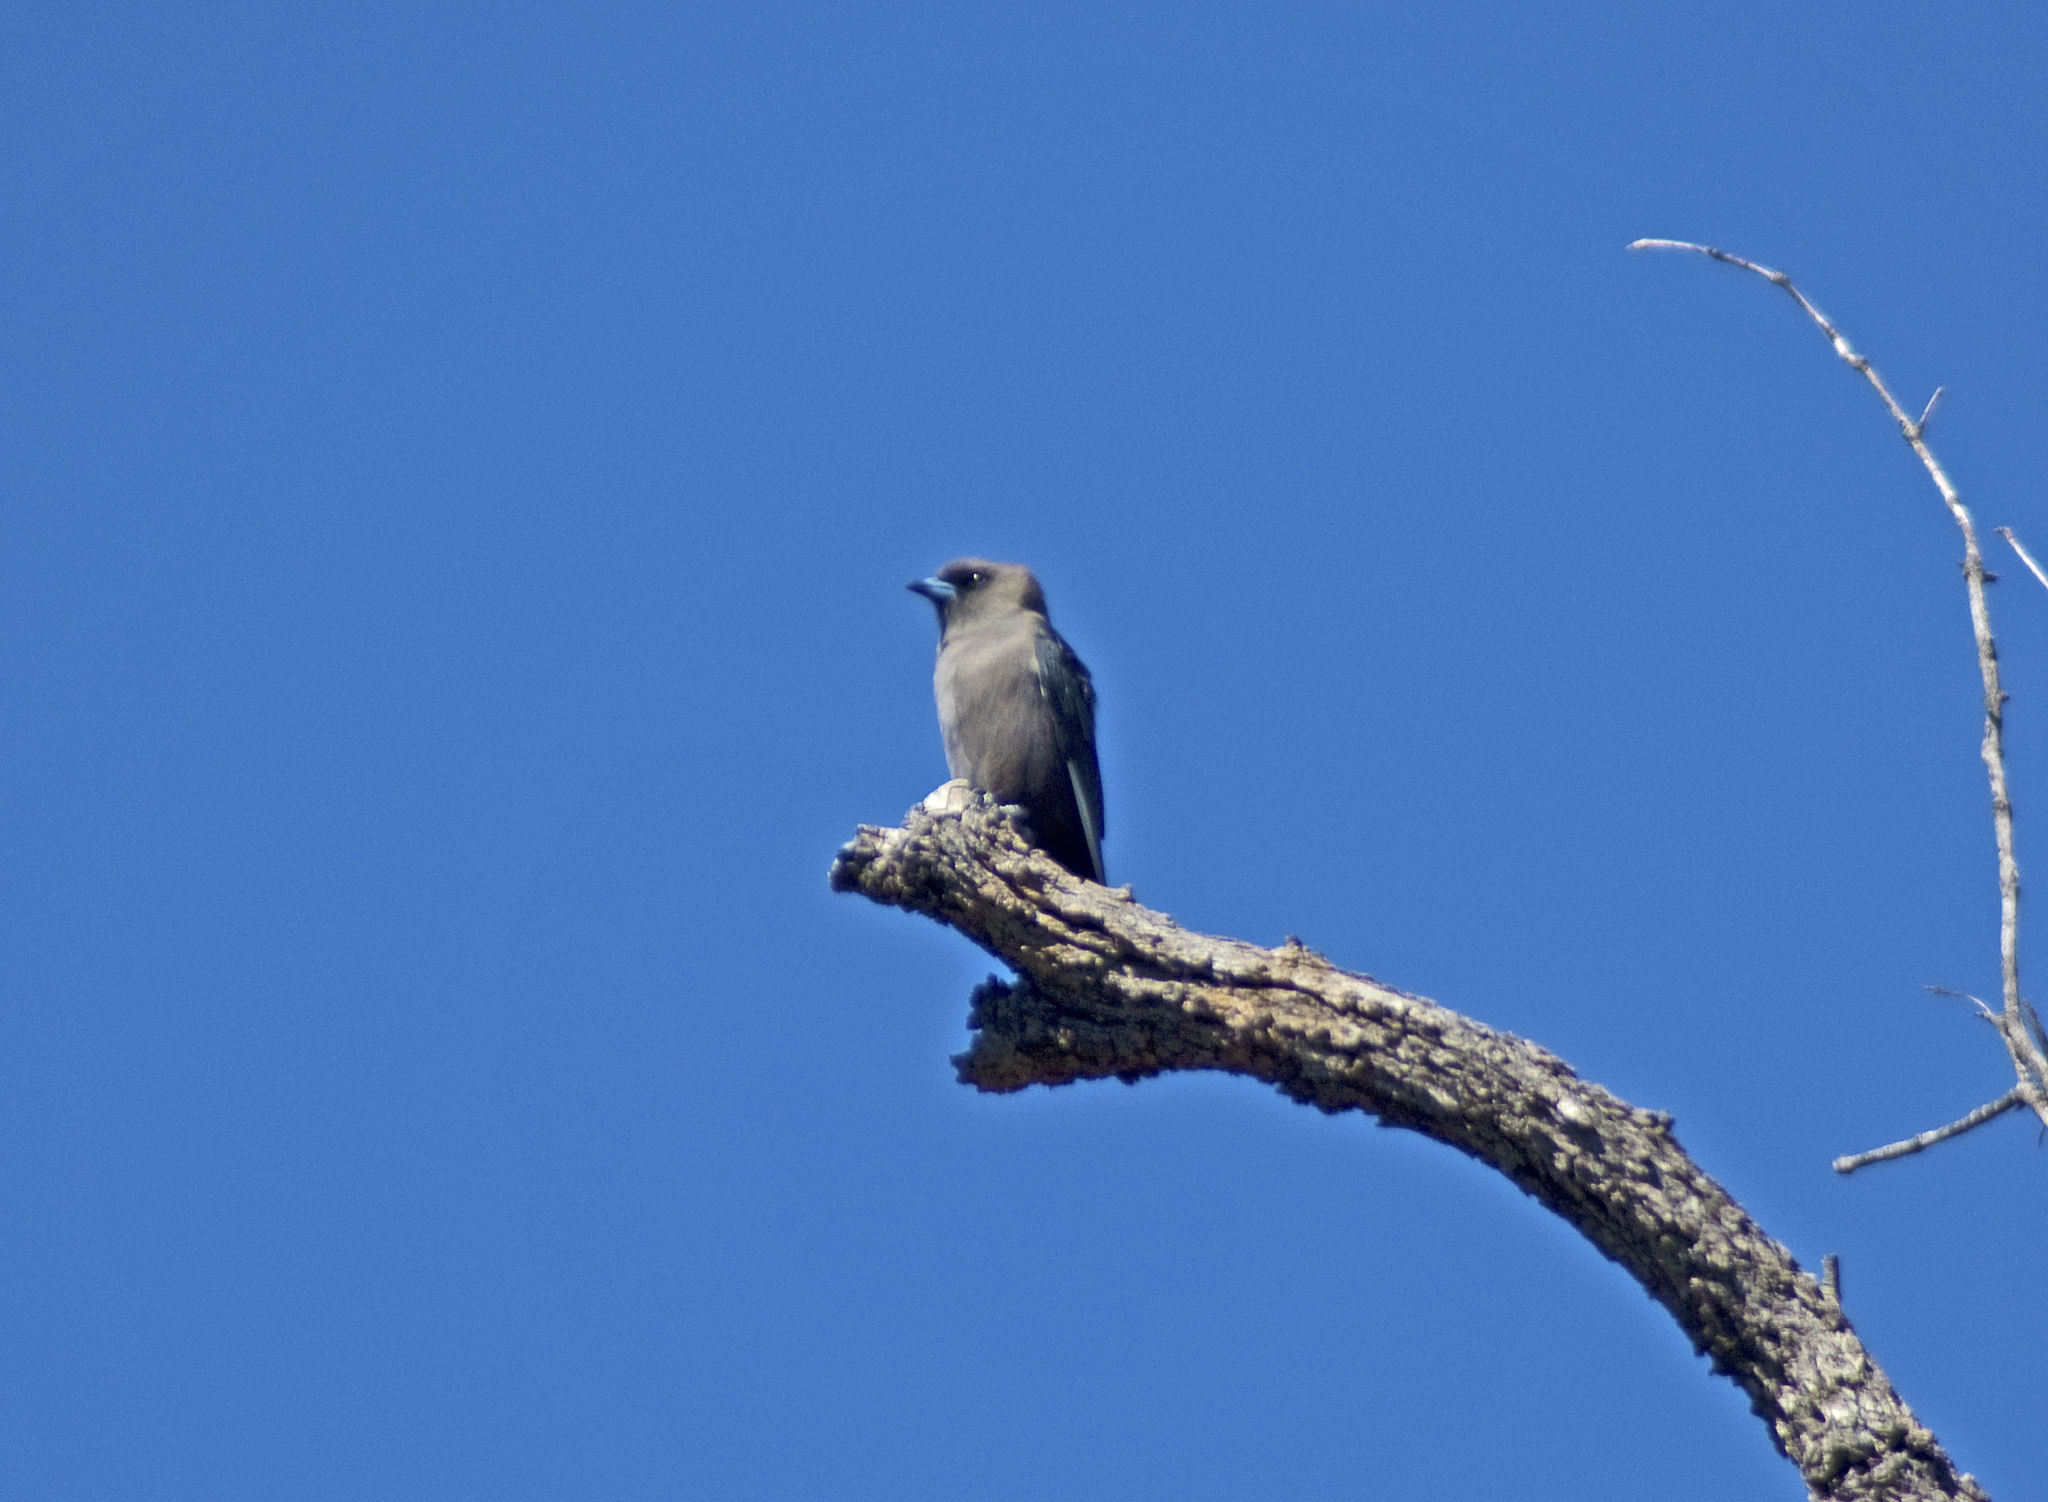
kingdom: Animalia
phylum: Chordata
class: Aves
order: Passeriformes
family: Artamidae
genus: Artamus
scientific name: Artamus cyanopterus
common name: Dusky woodswallow
